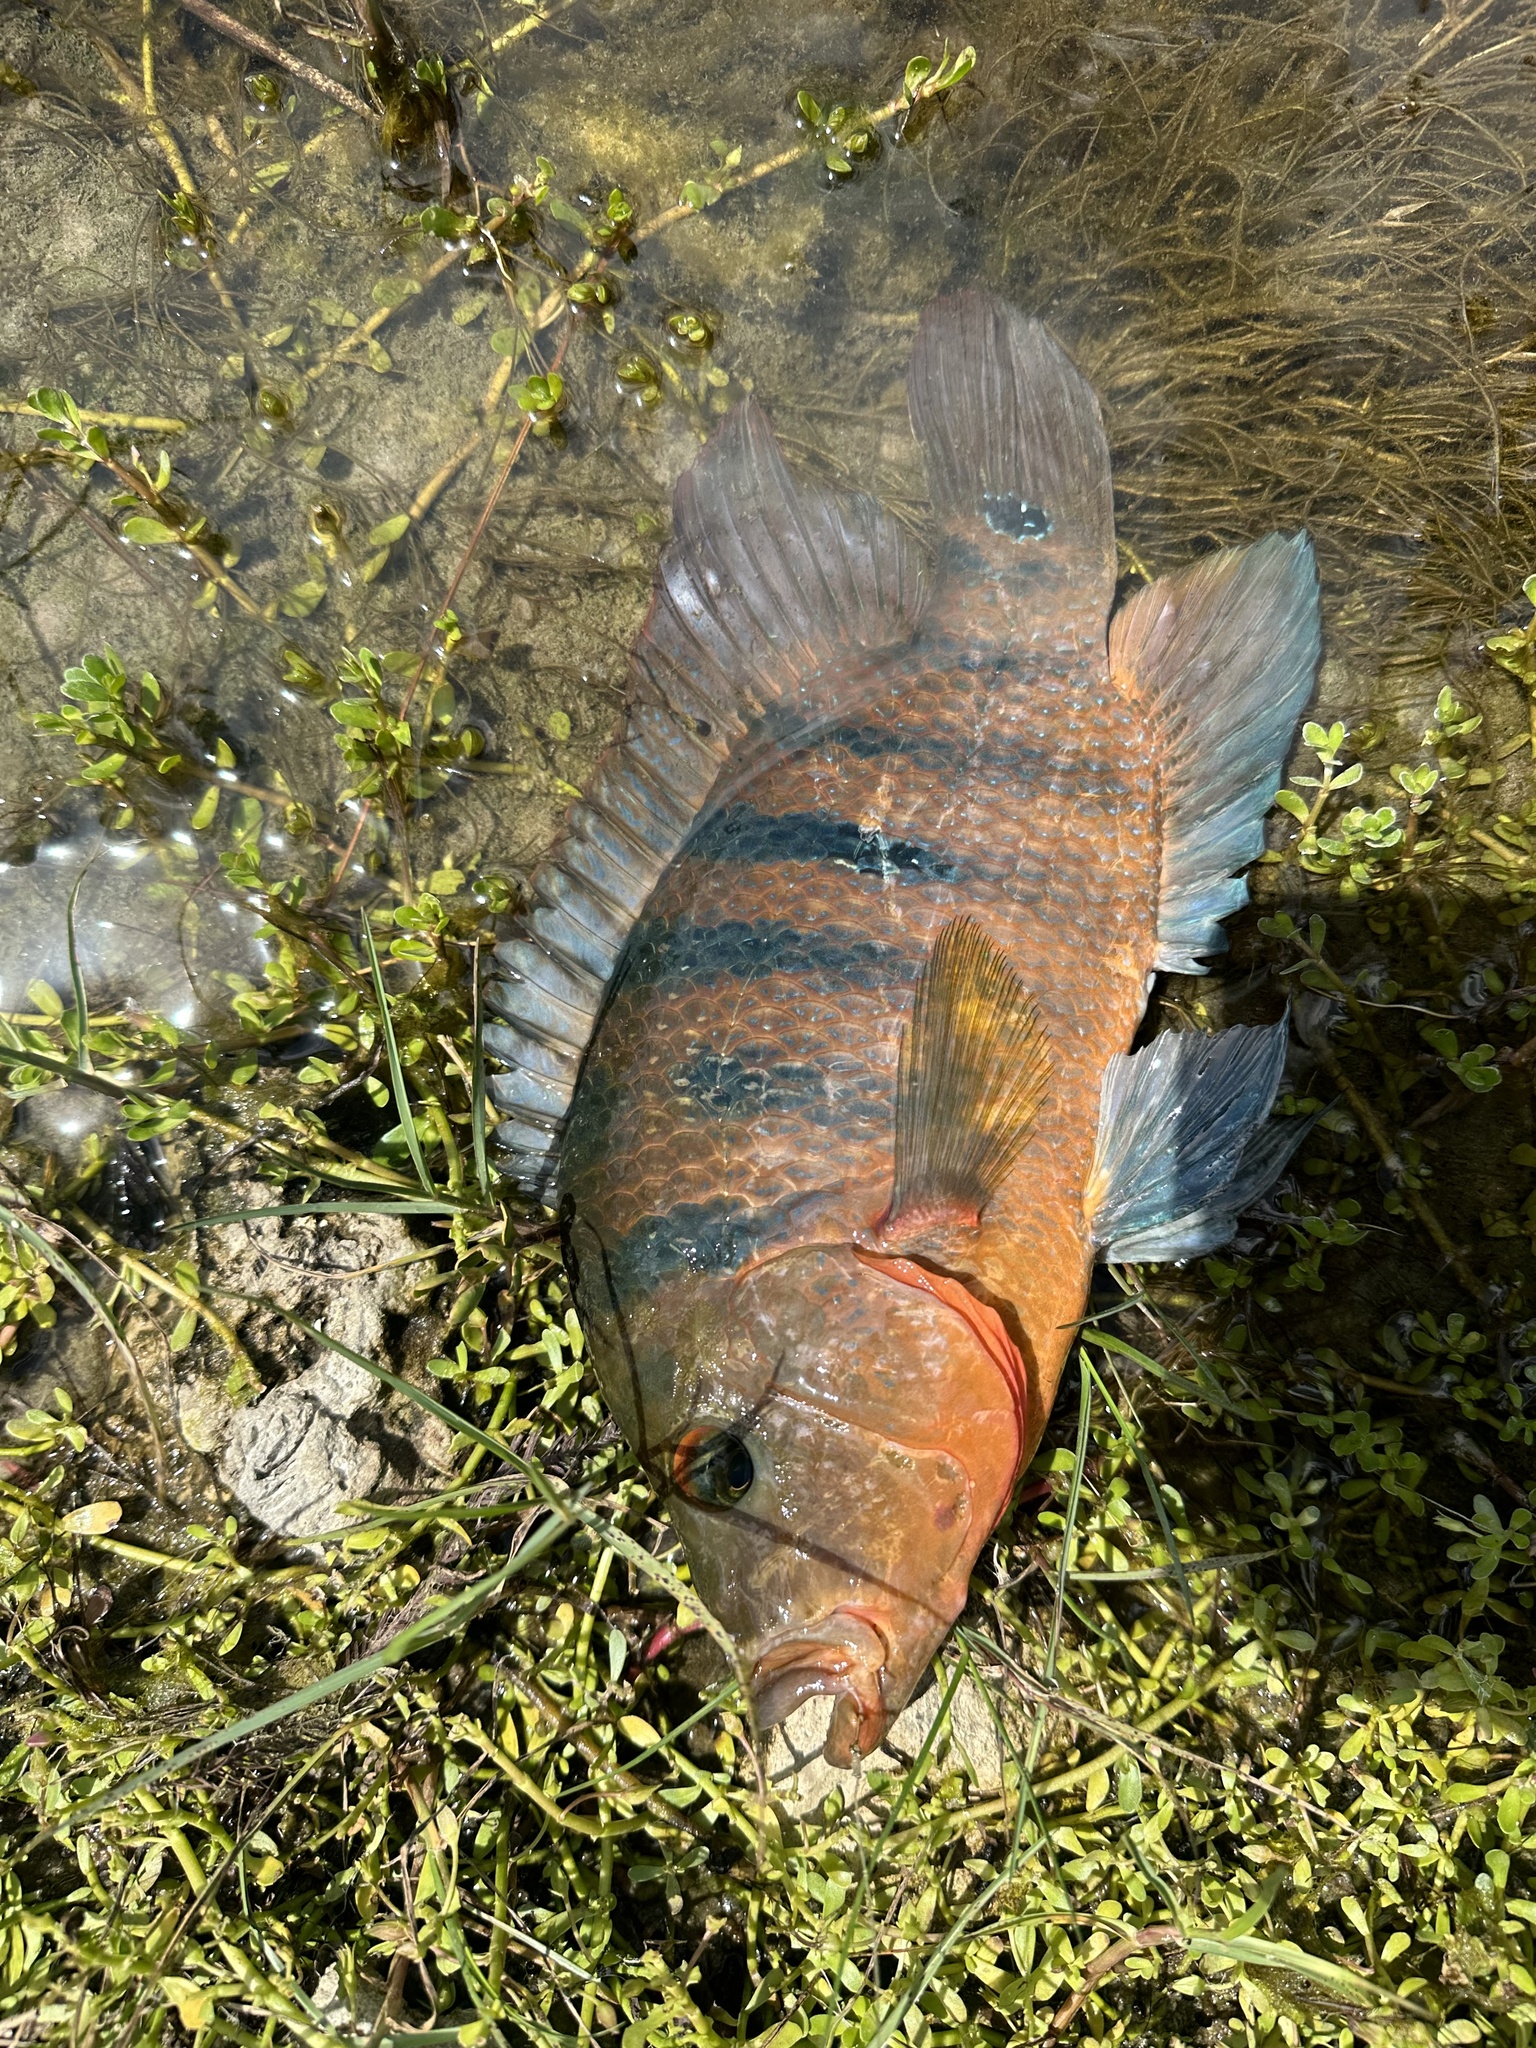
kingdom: Animalia
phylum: Chordata
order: Perciformes
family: Cichlidae
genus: Mayaheros
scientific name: Mayaheros urophthalmus
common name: Mayan cichlid
